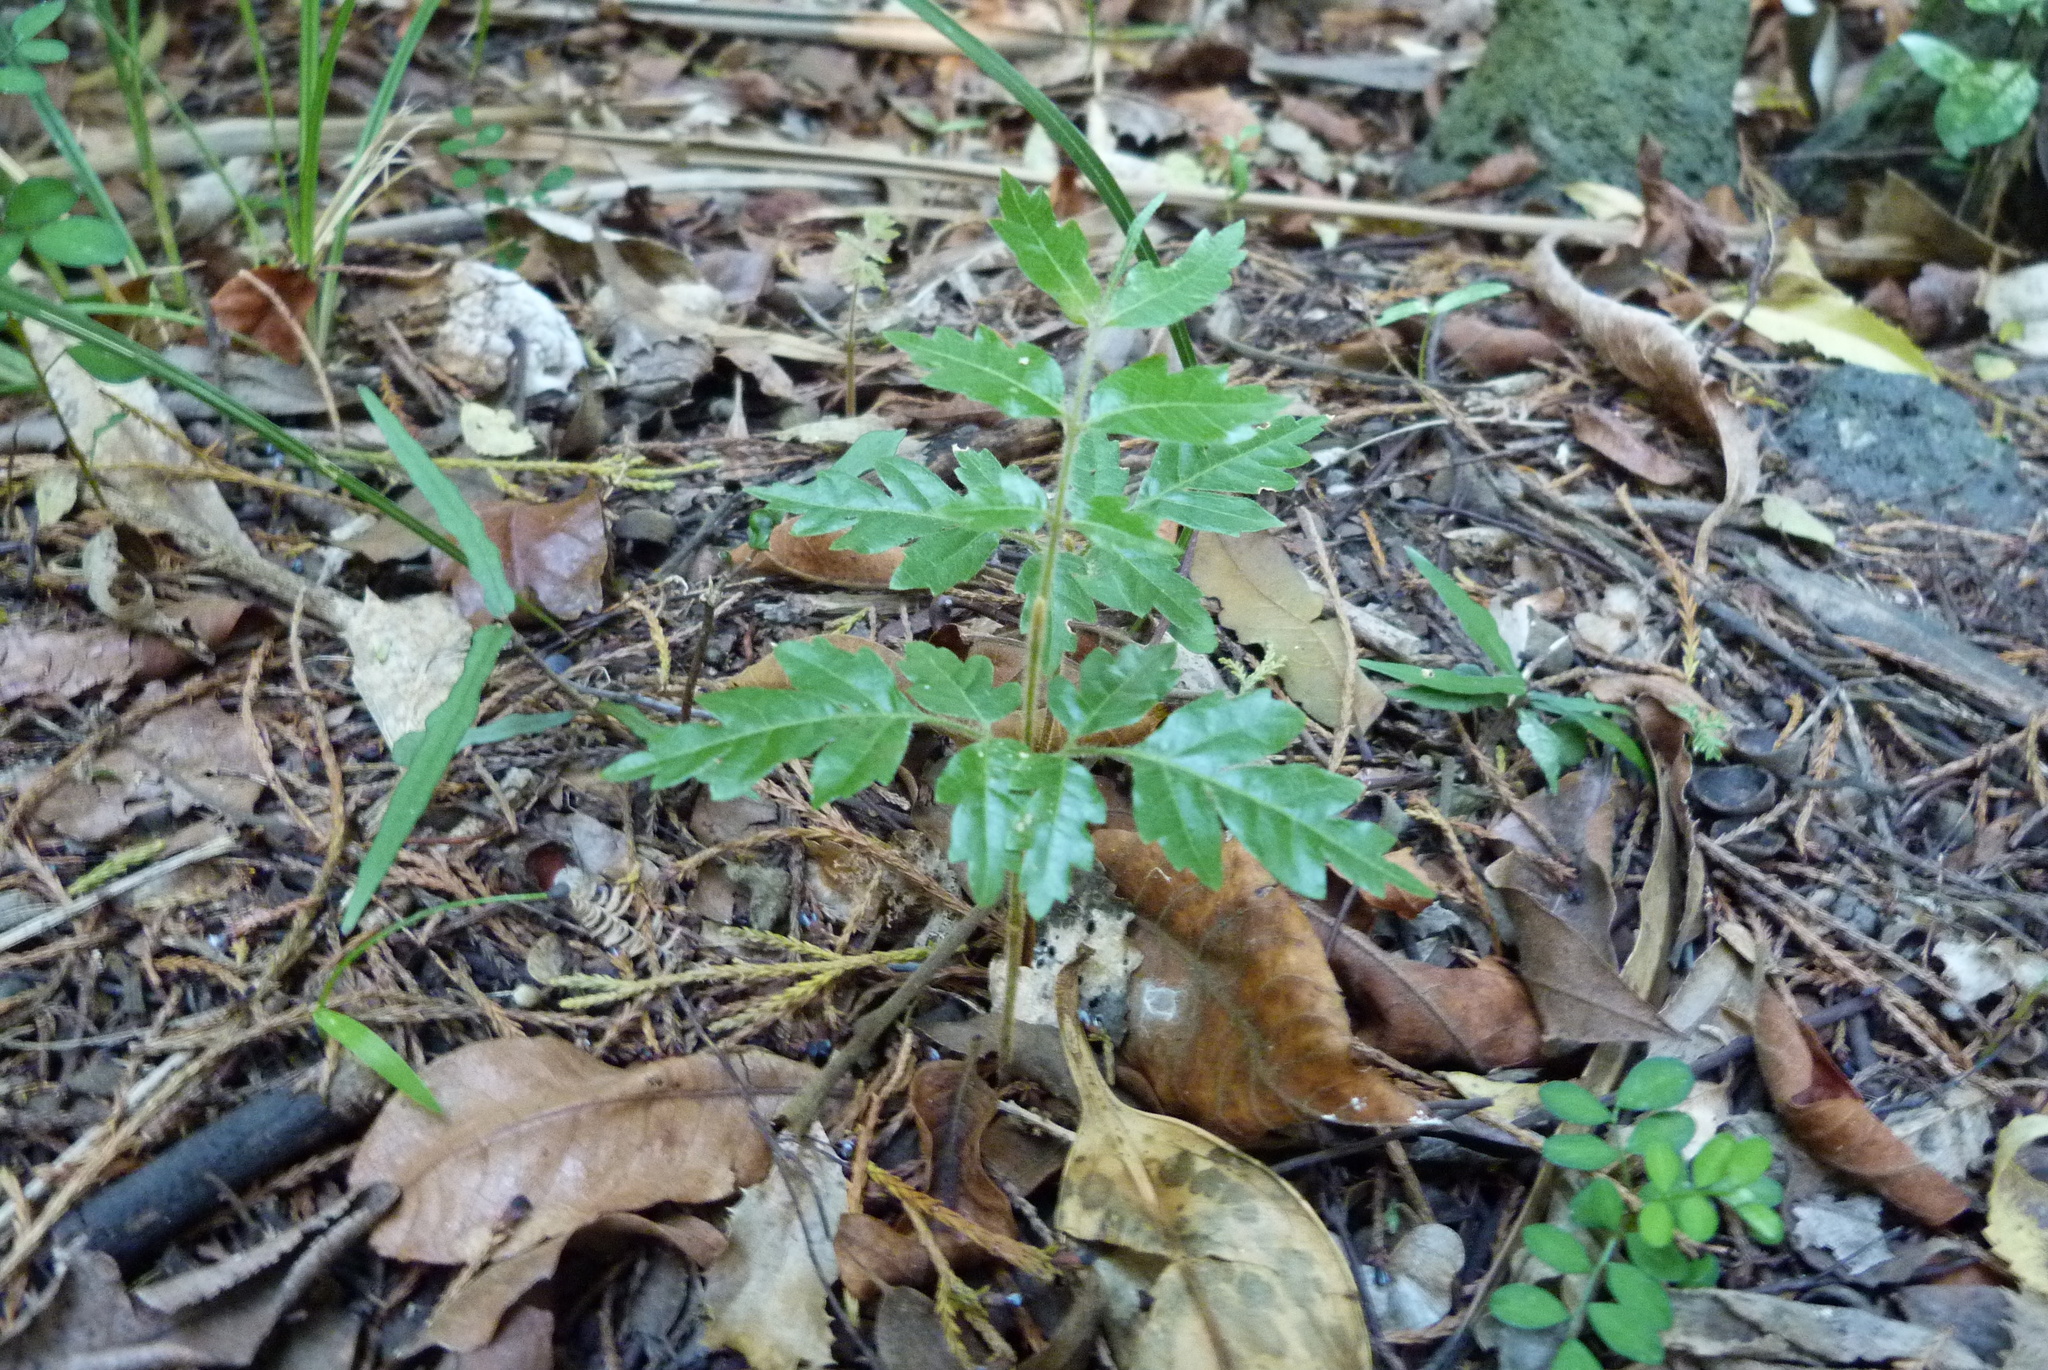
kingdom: Plantae
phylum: Tracheophyta
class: Magnoliopsida
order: Sapindales
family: Sapindaceae
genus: Alectryon
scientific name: Alectryon excelsus
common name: Three kings titoki
